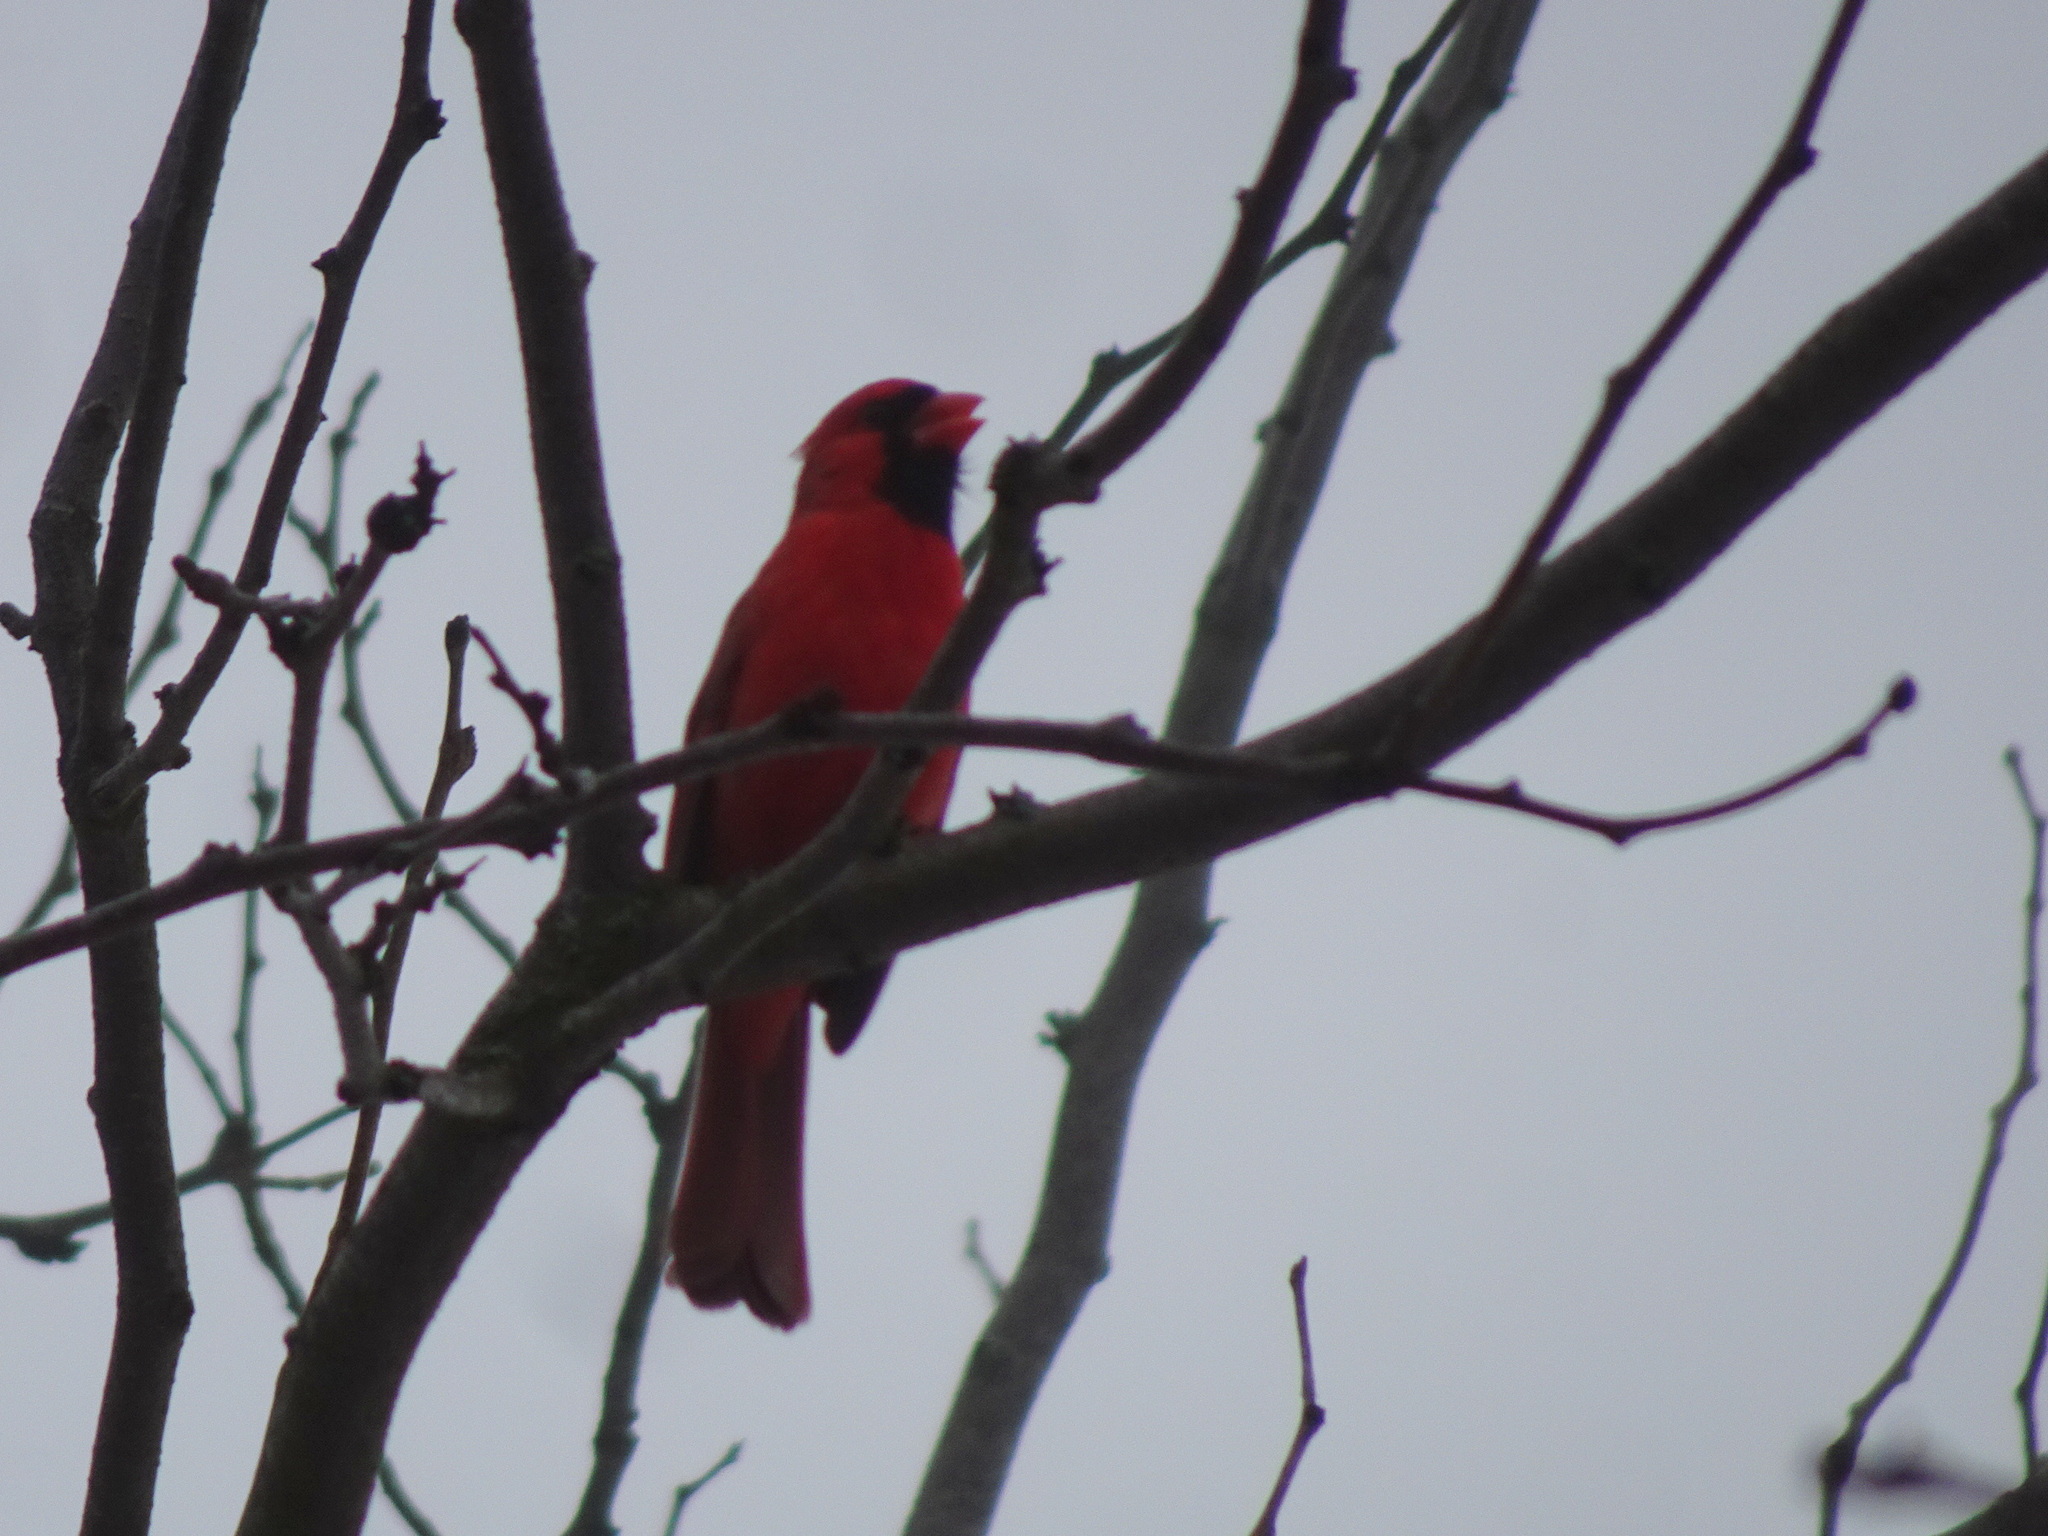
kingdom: Animalia
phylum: Chordata
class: Aves
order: Passeriformes
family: Cardinalidae
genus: Cardinalis
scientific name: Cardinalis cardinalis
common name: Northern cardinal
